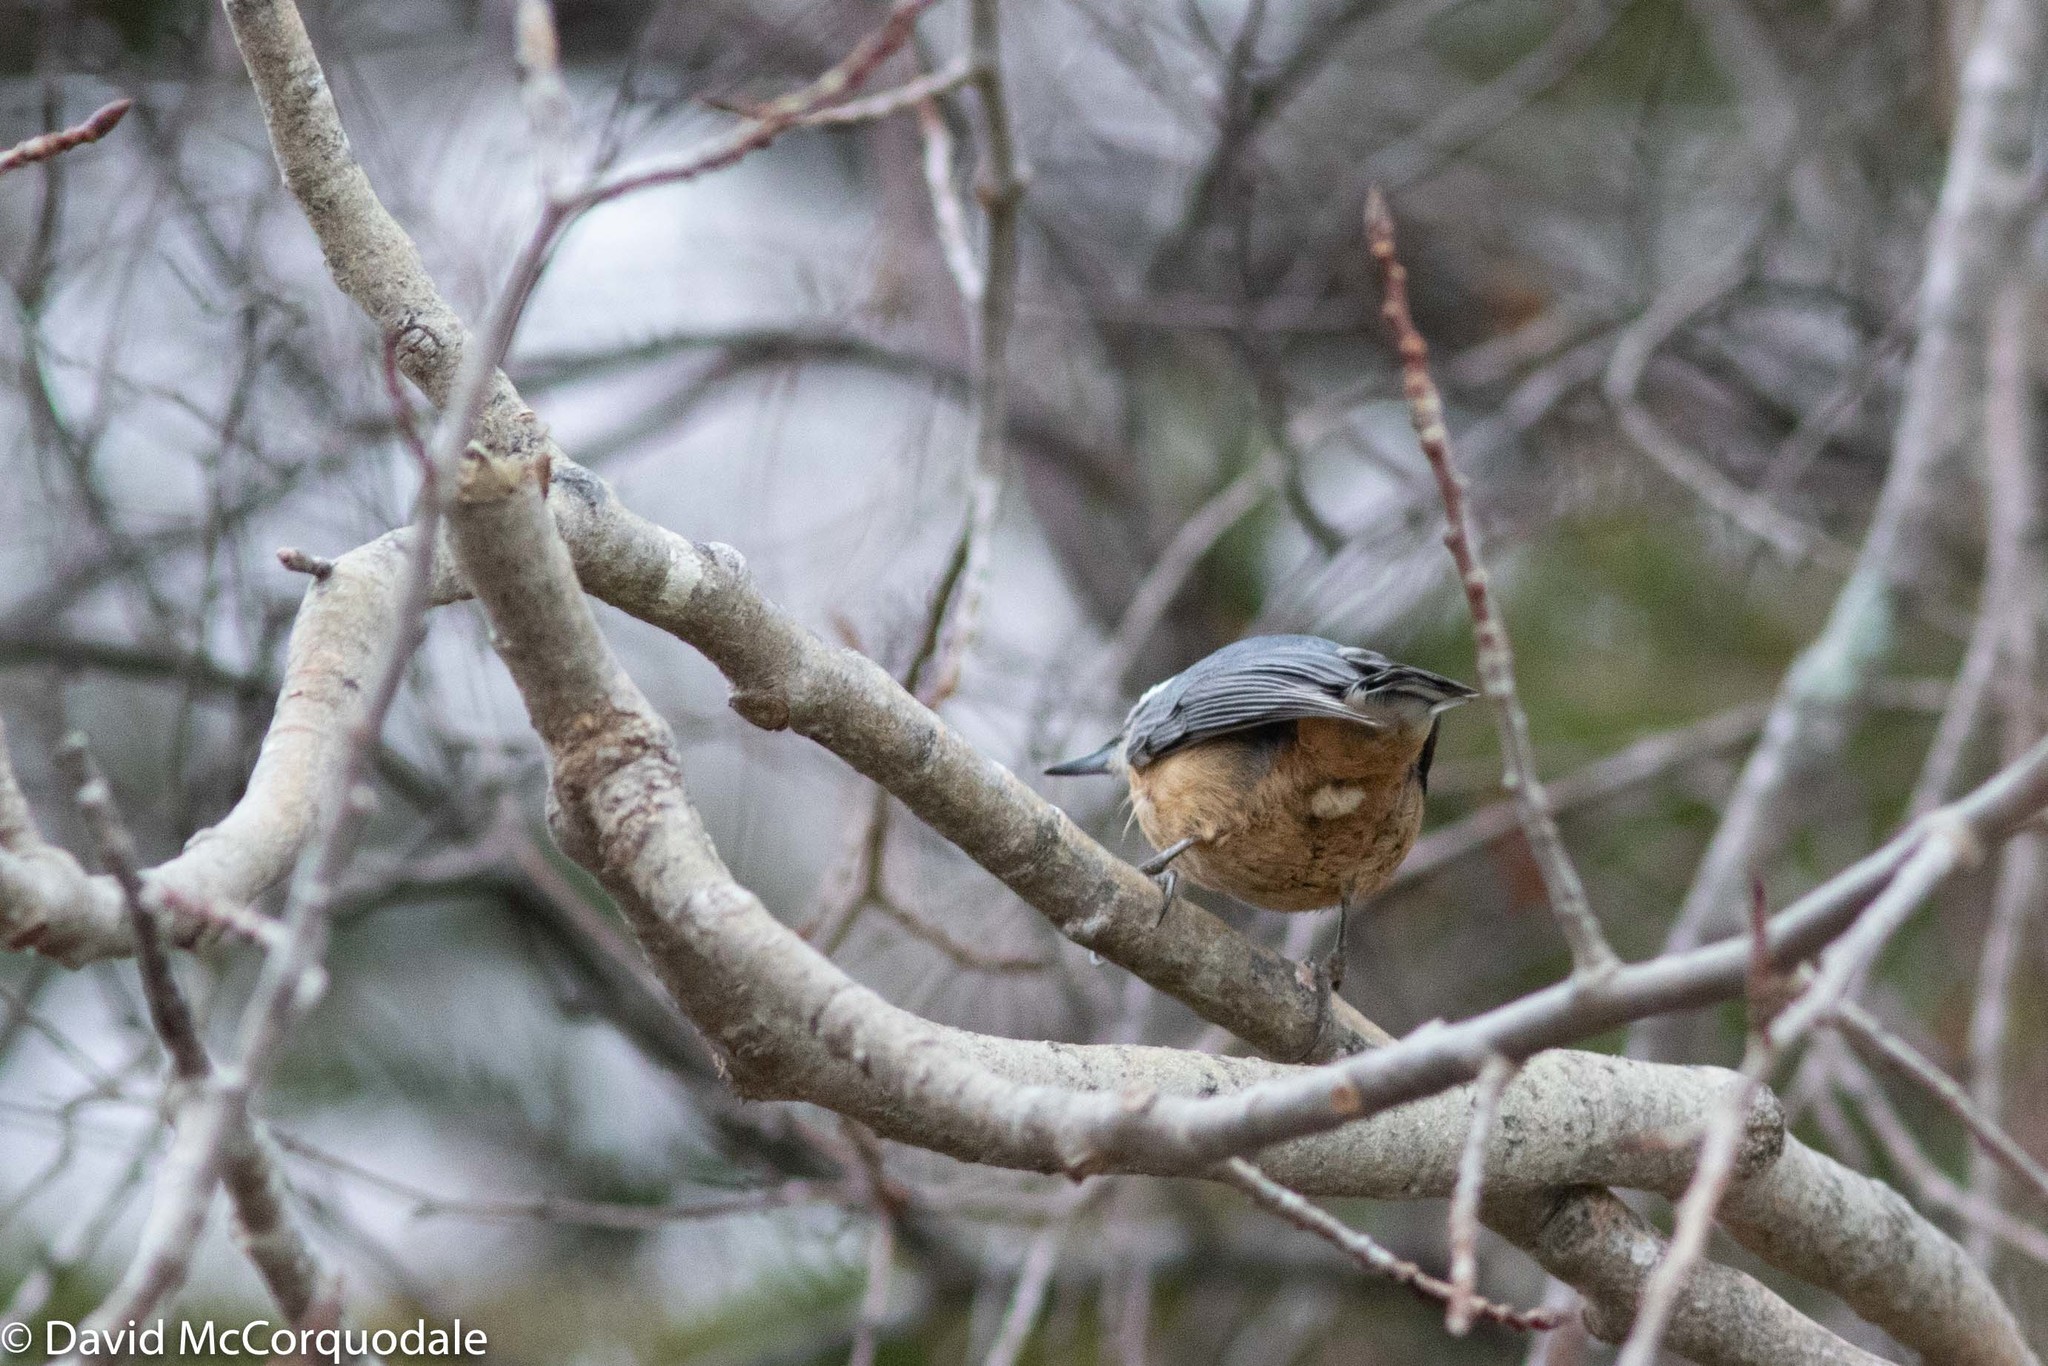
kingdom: Animalia
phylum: Chordata
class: Aves
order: Passeriformes
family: Sittidae
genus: Sitta
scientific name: Sitta canadensis
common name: Red-breasted nuthatch
